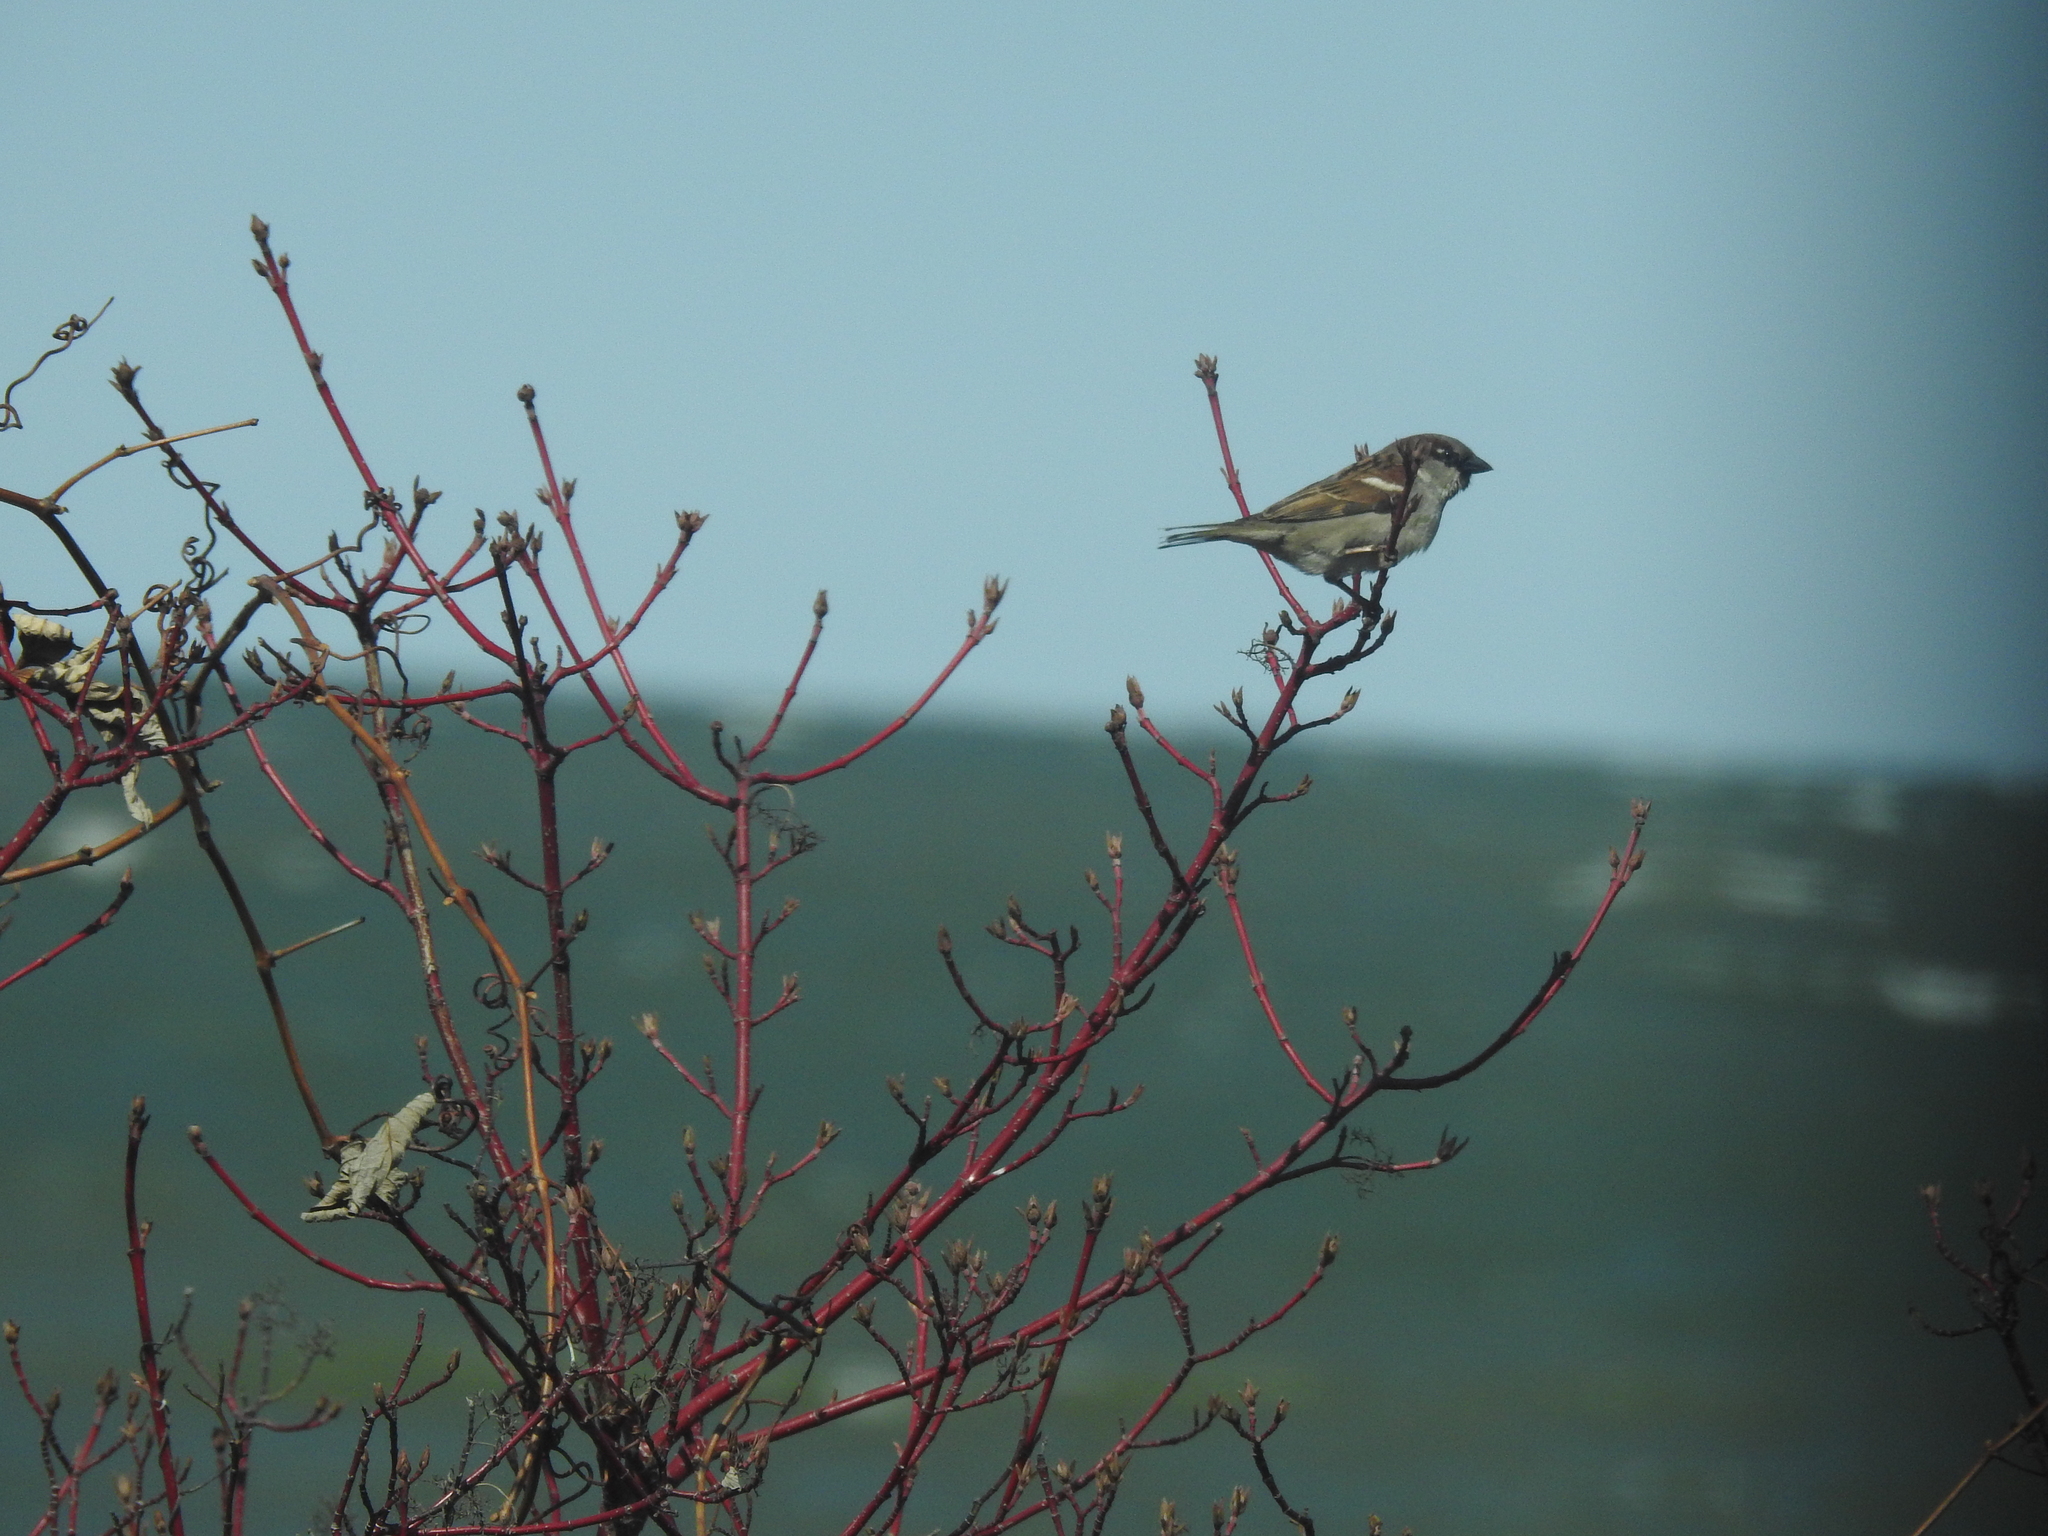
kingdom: Animalia
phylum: Chordata
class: Aves
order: Passeriformes
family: Passeridae
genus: Passer
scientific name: Passer domesticus
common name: House sparrow
